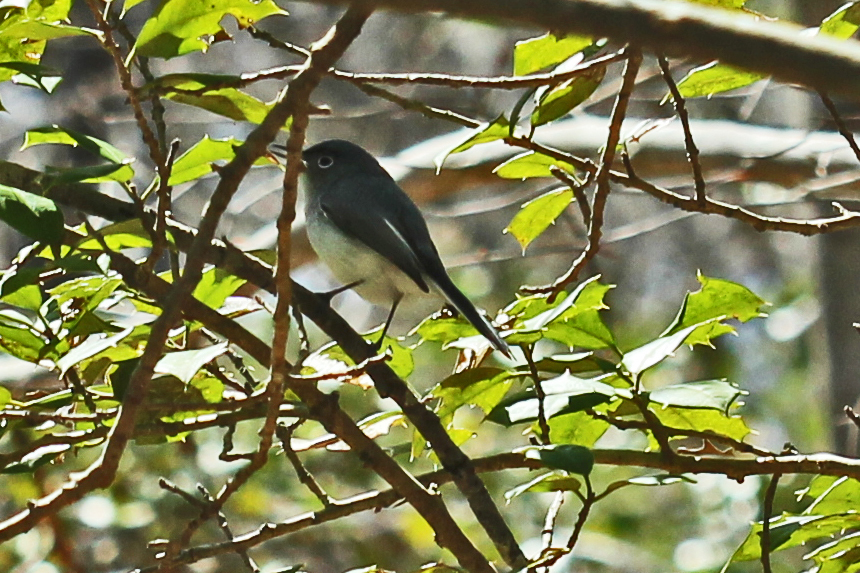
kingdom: Animalia
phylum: Chordata
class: Aves
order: Passeriformes
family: Polioptilidae
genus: Polioptila
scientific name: Polioptila caerulea
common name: Blue-gray gnatcatcher
